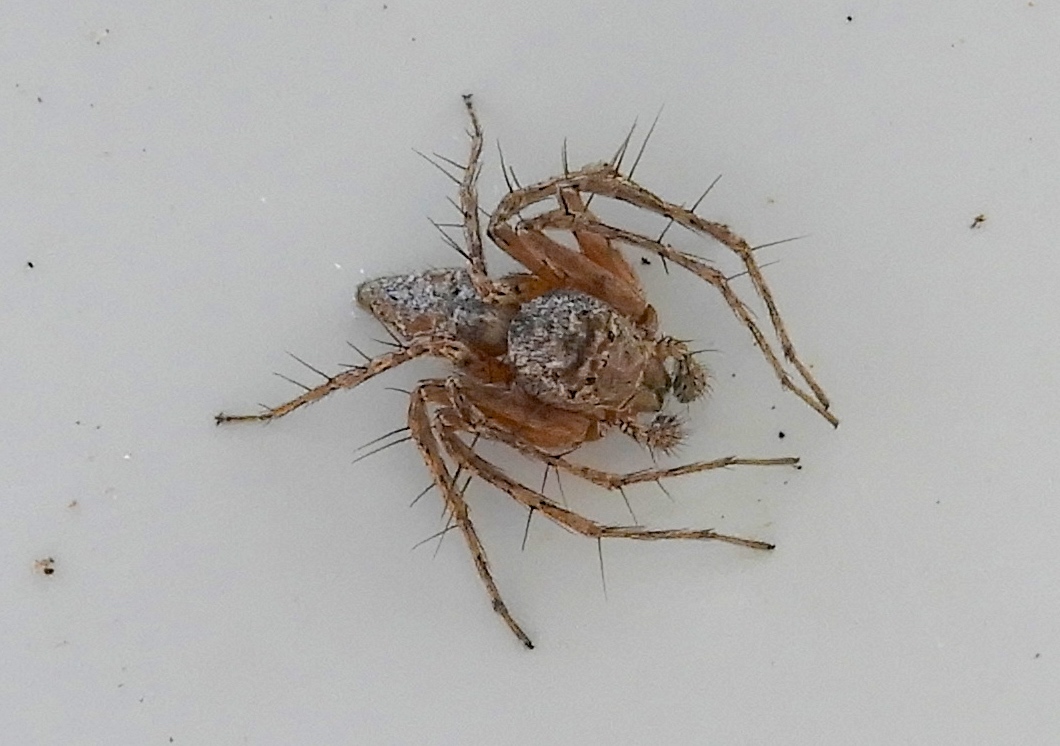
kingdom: Animalia
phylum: Arthropoda
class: Arachnida
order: Araneae
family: Oxyopidae
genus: Hamataliwa
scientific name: Hamataliwa
